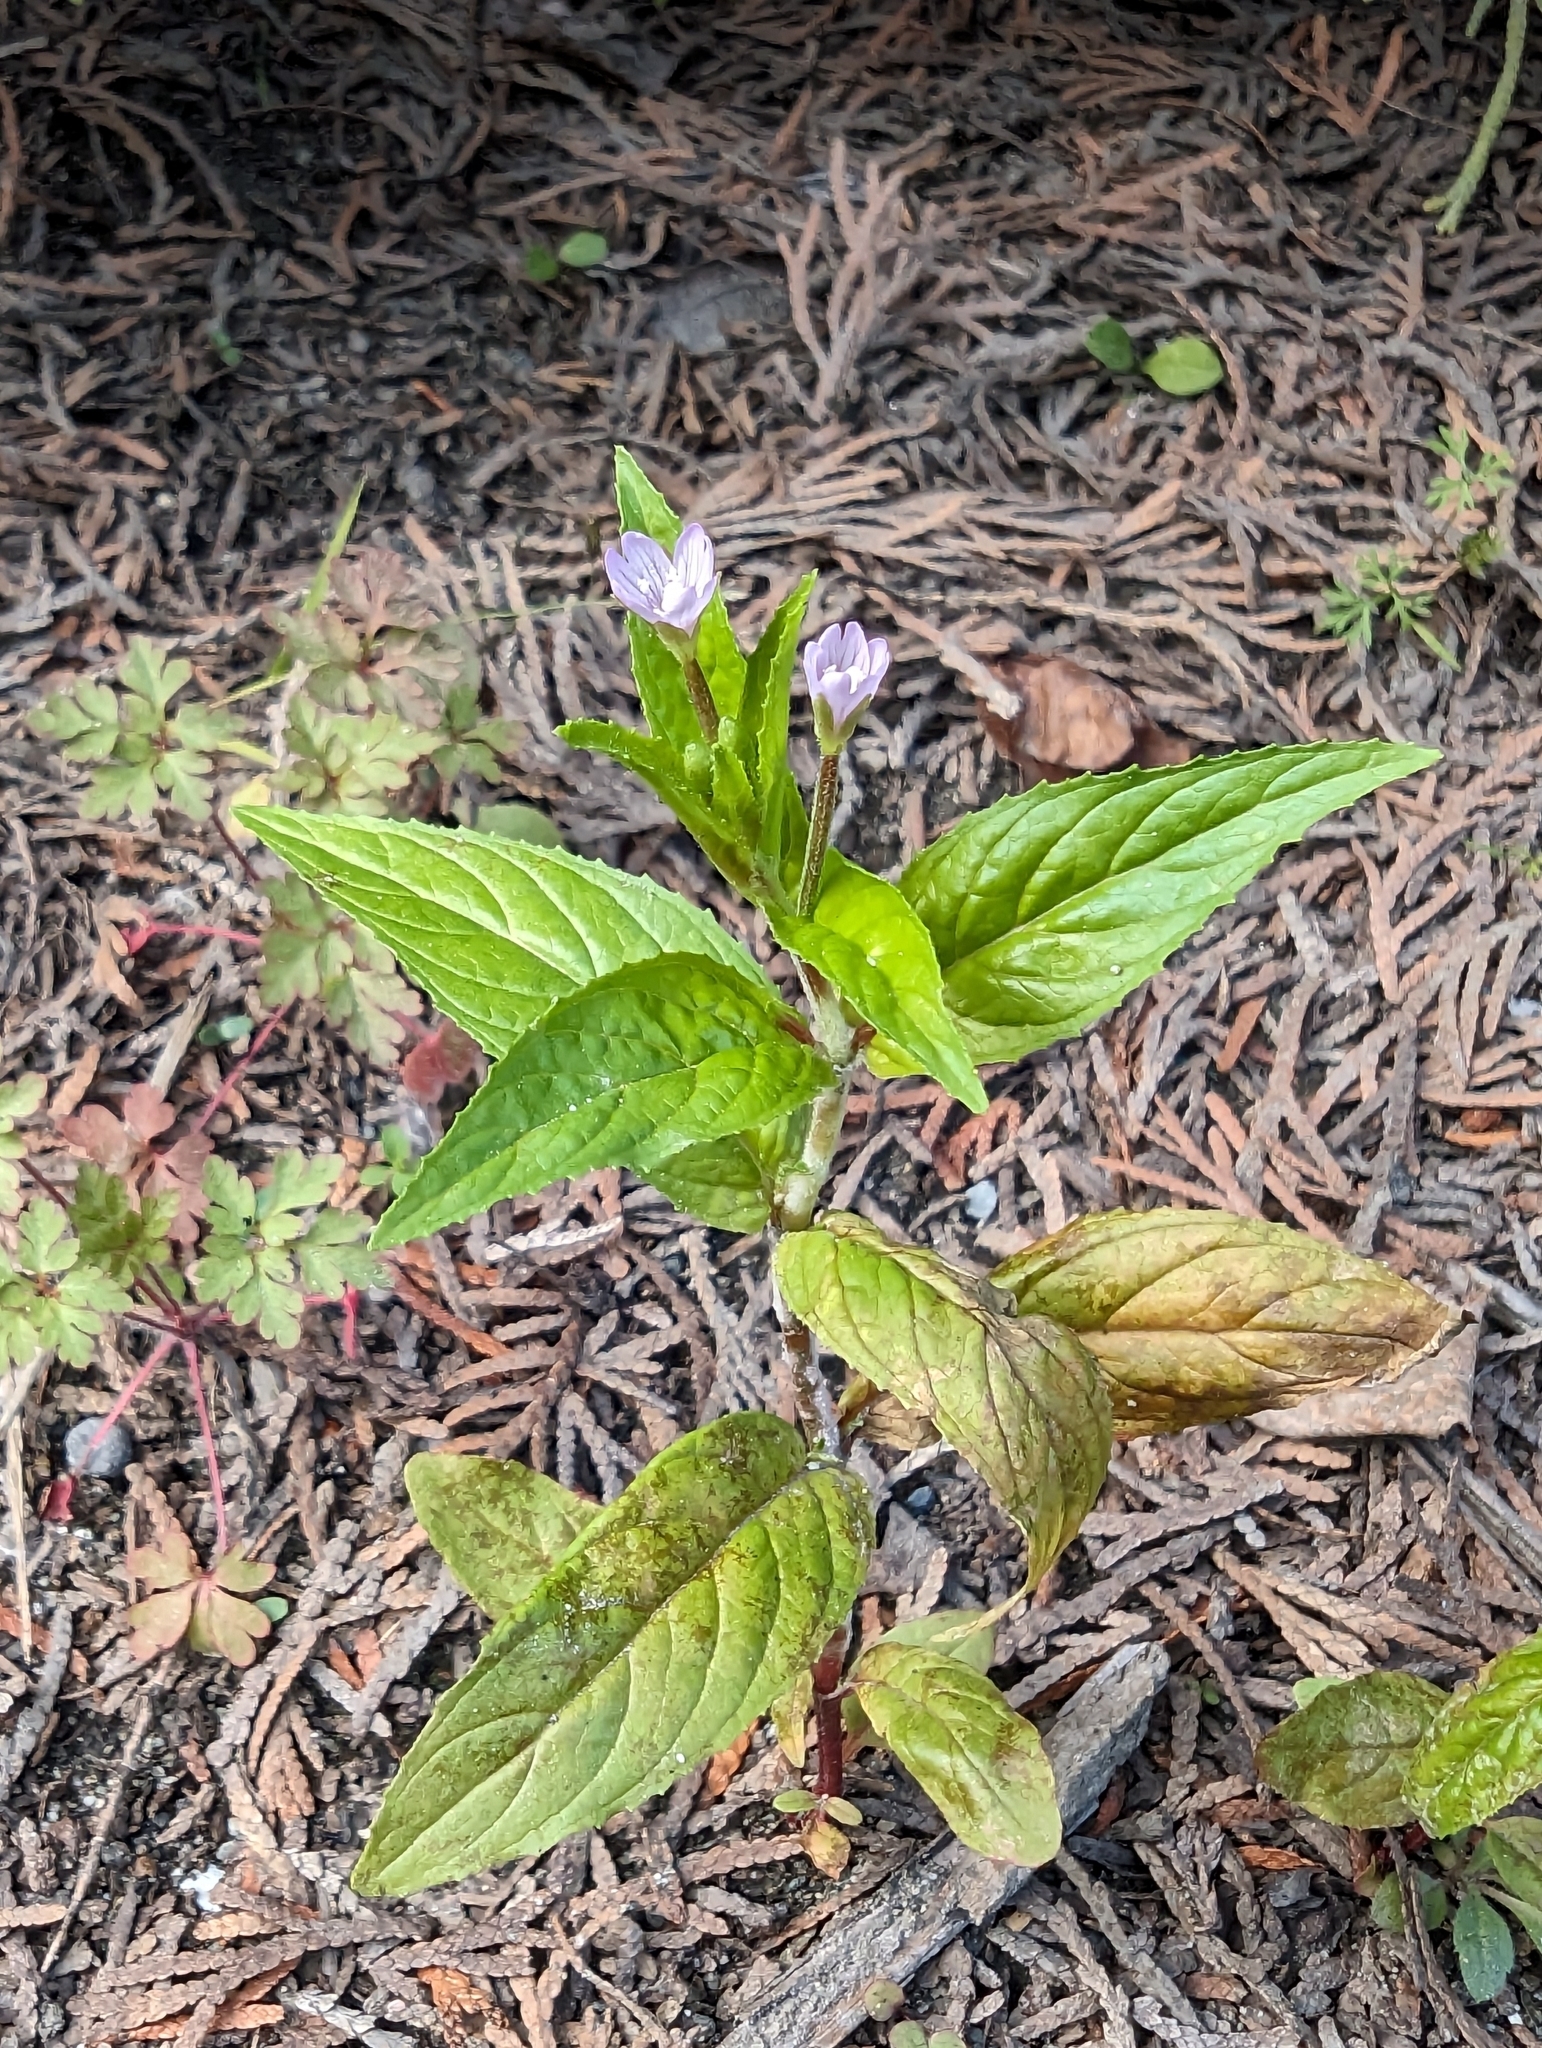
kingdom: Plantae
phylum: Tracheophyta
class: Magnoliopsida
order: Myrtales
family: Onagraceae
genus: Epilobium
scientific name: Epilobium ciliatum
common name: American willowherb
